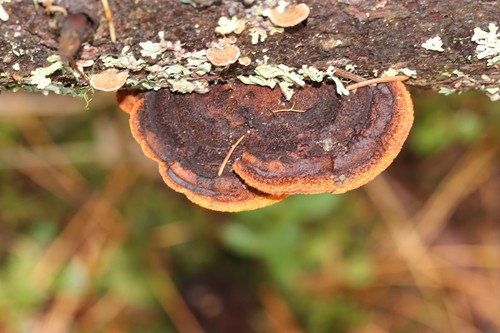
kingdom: Fungi
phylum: Basidiomycota
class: Agaricomycetes
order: Gloeophyllales
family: Gloeophyllaceae
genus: Gloeophyllum
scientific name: Gloeophyllum sepiarium
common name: Conifer mazegill
